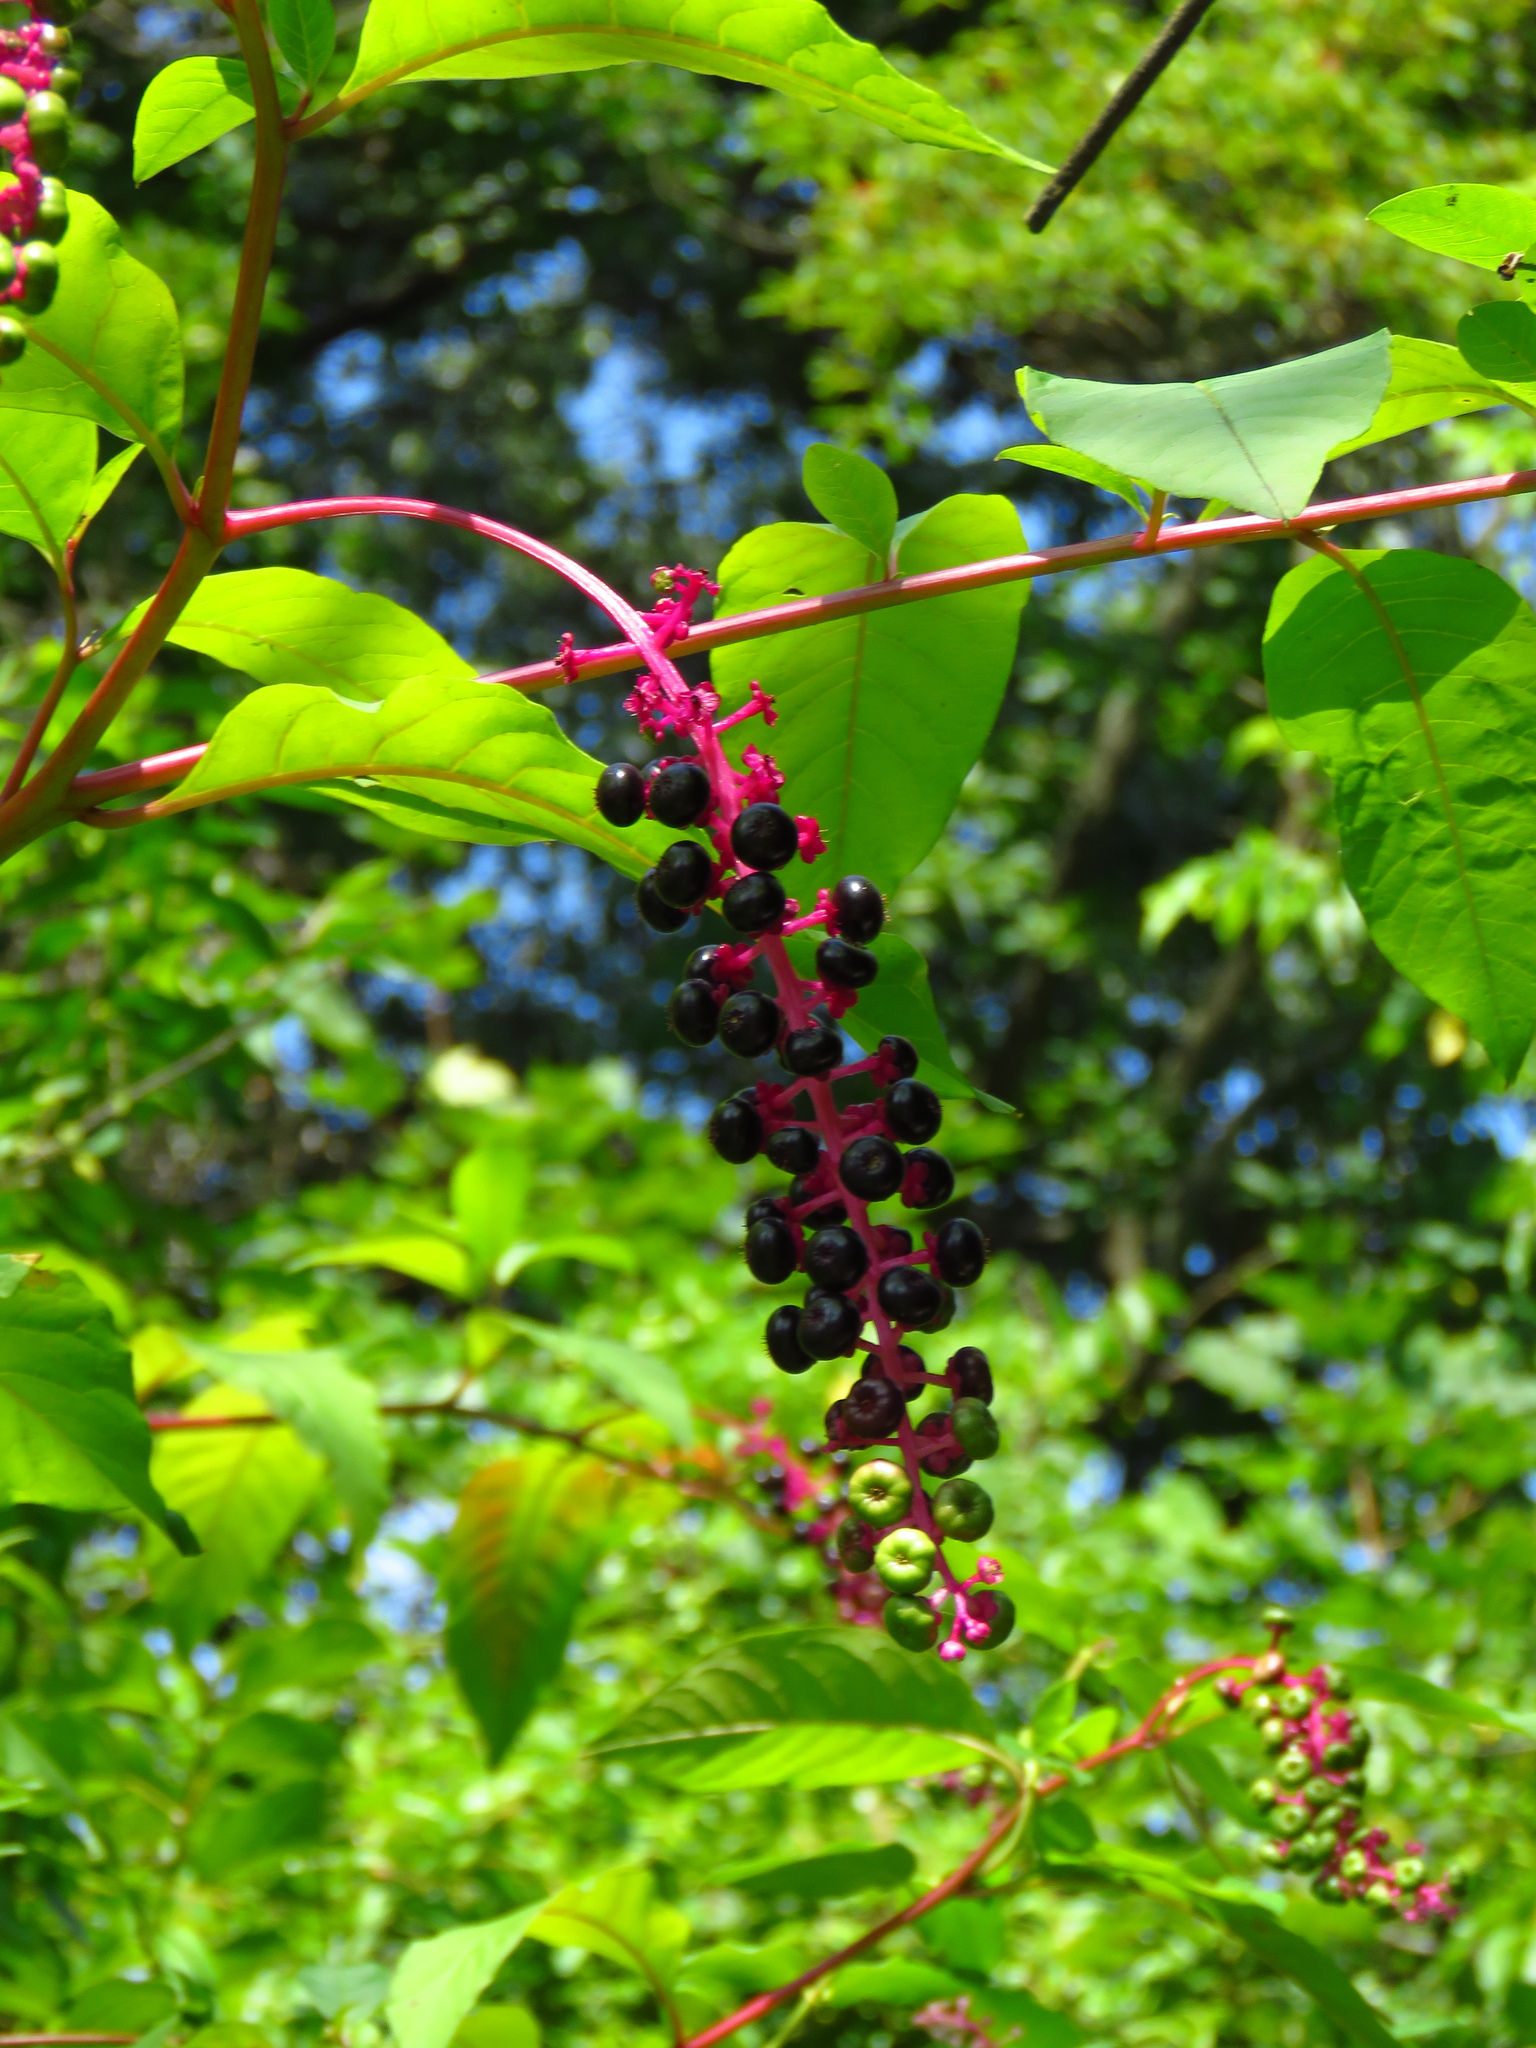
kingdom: Plantae
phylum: Tracheophyta
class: Magnoliopsida
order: Caryophyllales
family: Phytolaccaceae
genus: Phytolacca
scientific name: Phytolacca americana
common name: American pokeweed
